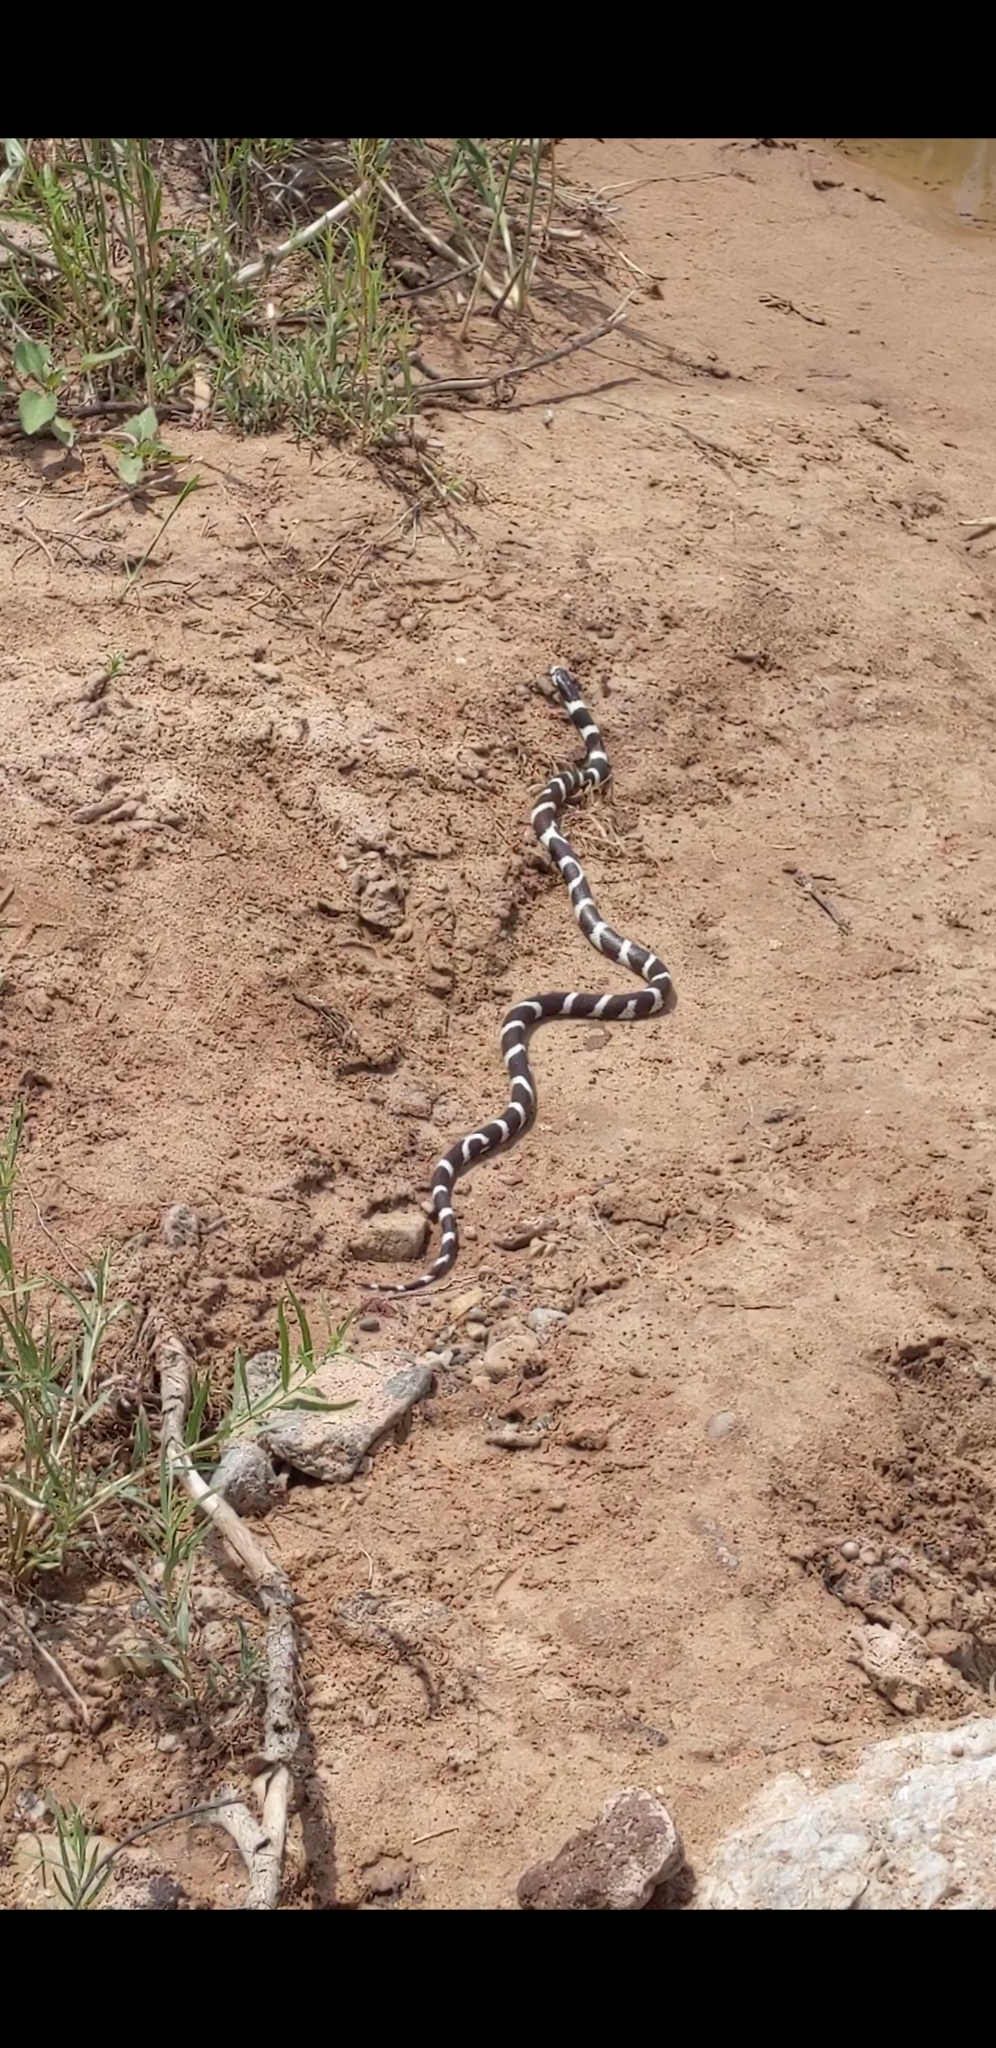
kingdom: Animalia
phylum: Chordata
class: Squamata
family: Colubridae
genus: Lampropeltis
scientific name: Lampropeltis californiae
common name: California kingsnake
